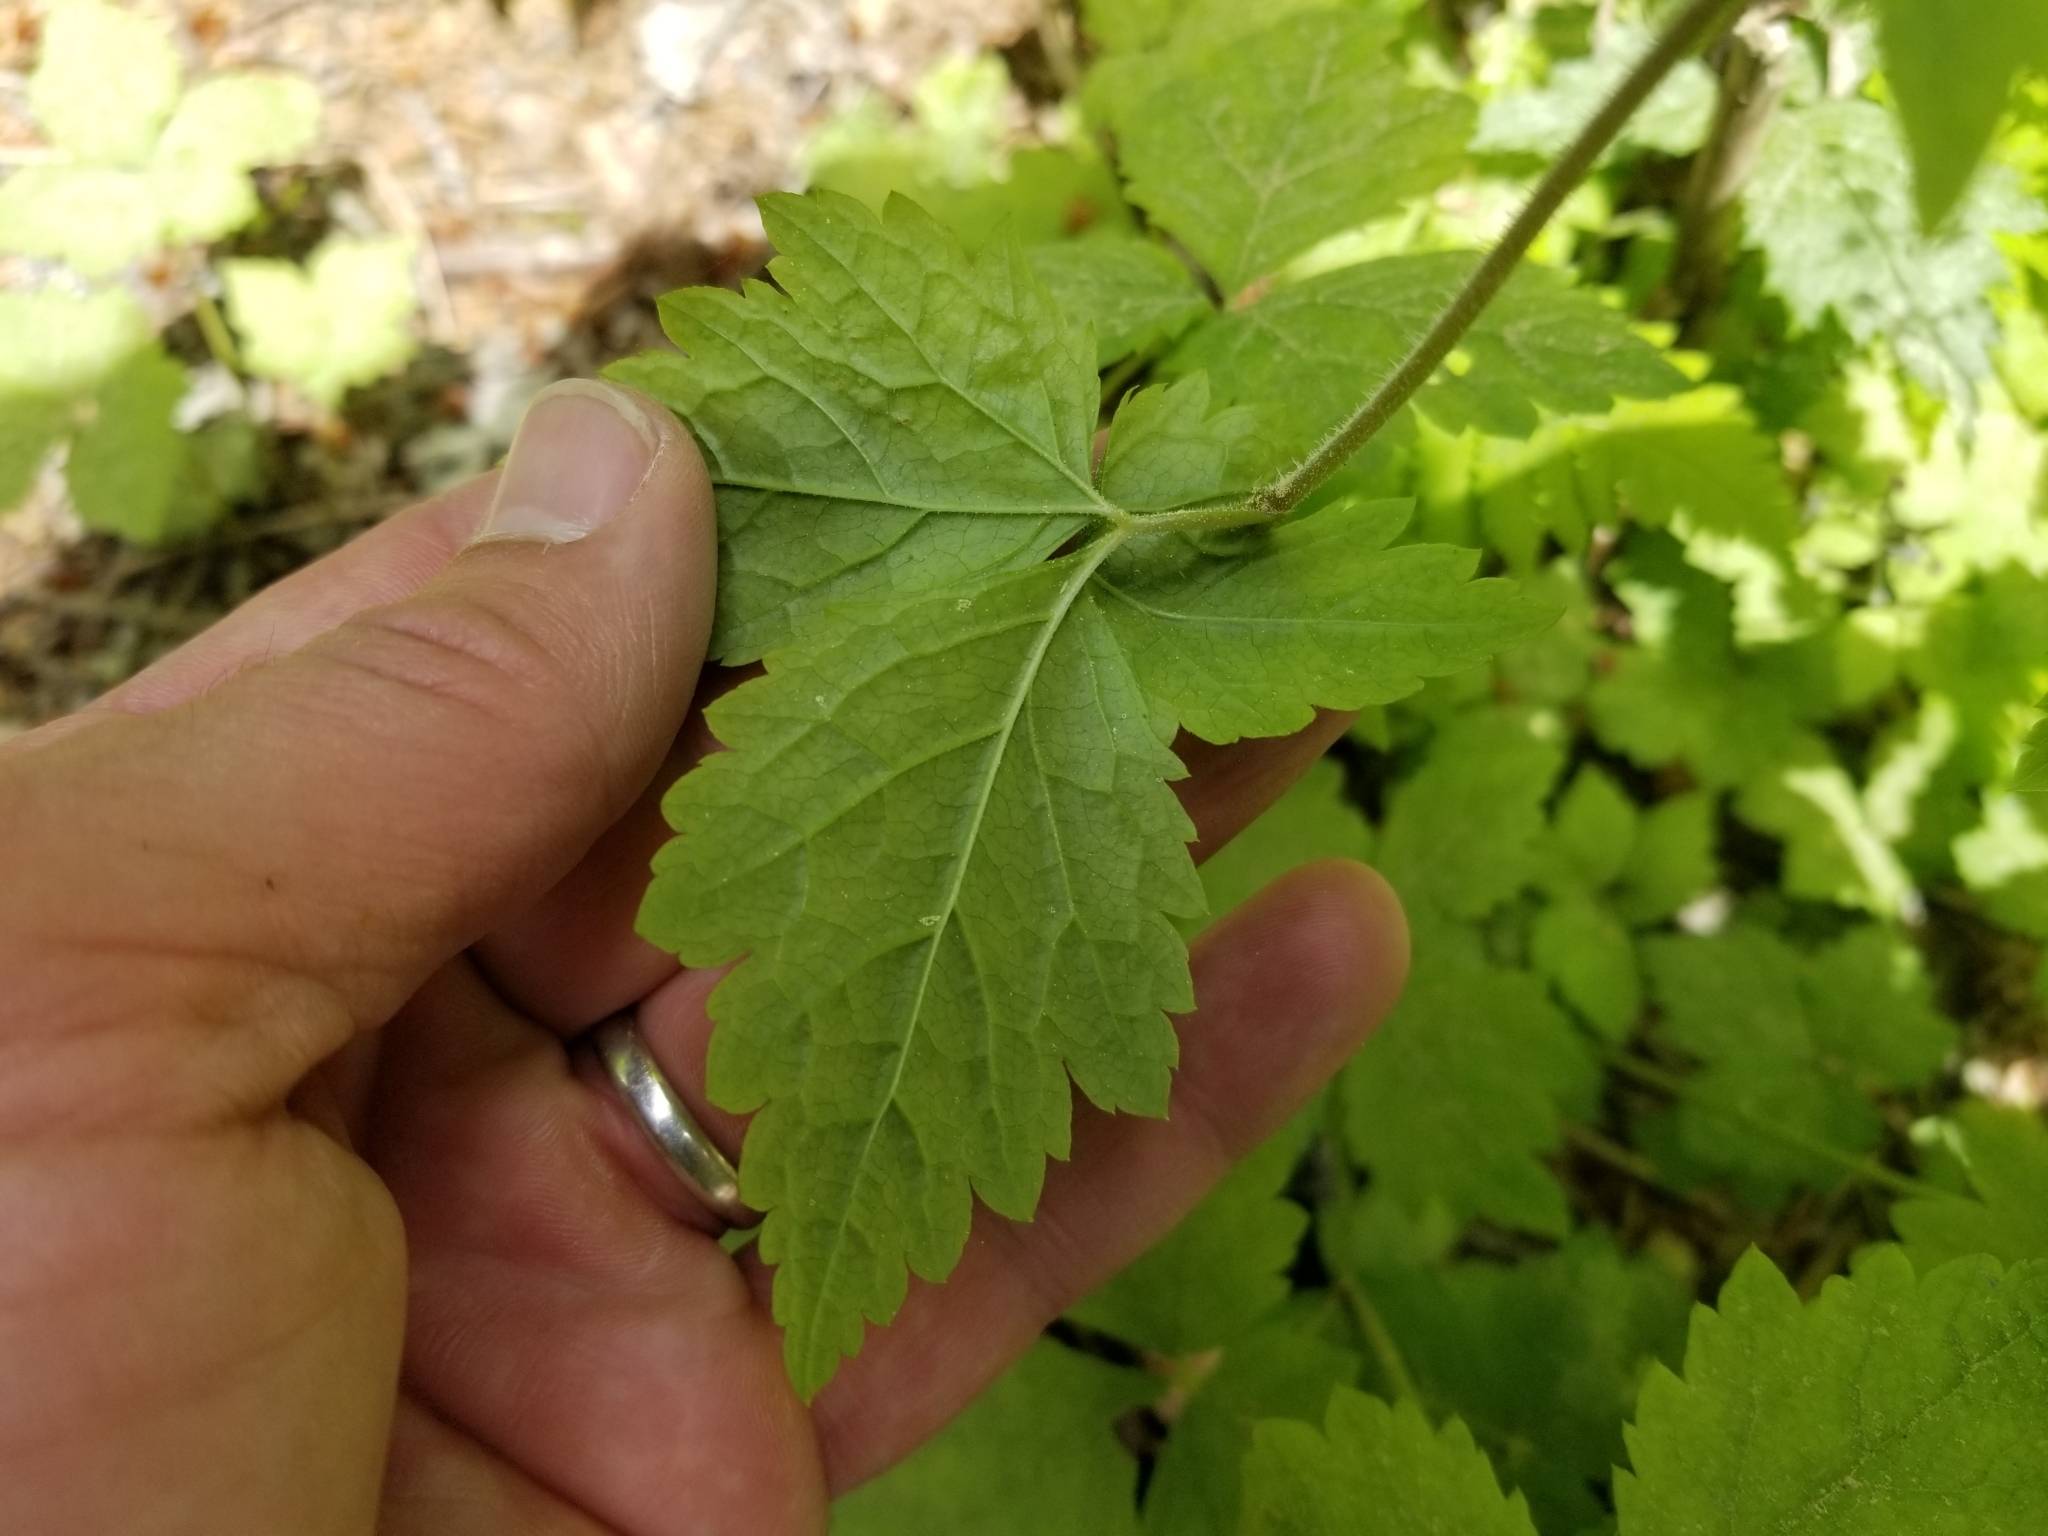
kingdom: Plantae
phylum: Tracheophyta
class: Magnoliopsida
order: Saxifragales
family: Saxifragaceae
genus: Tiarella
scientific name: Tiarella trifoliata
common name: Sugar-scoop
